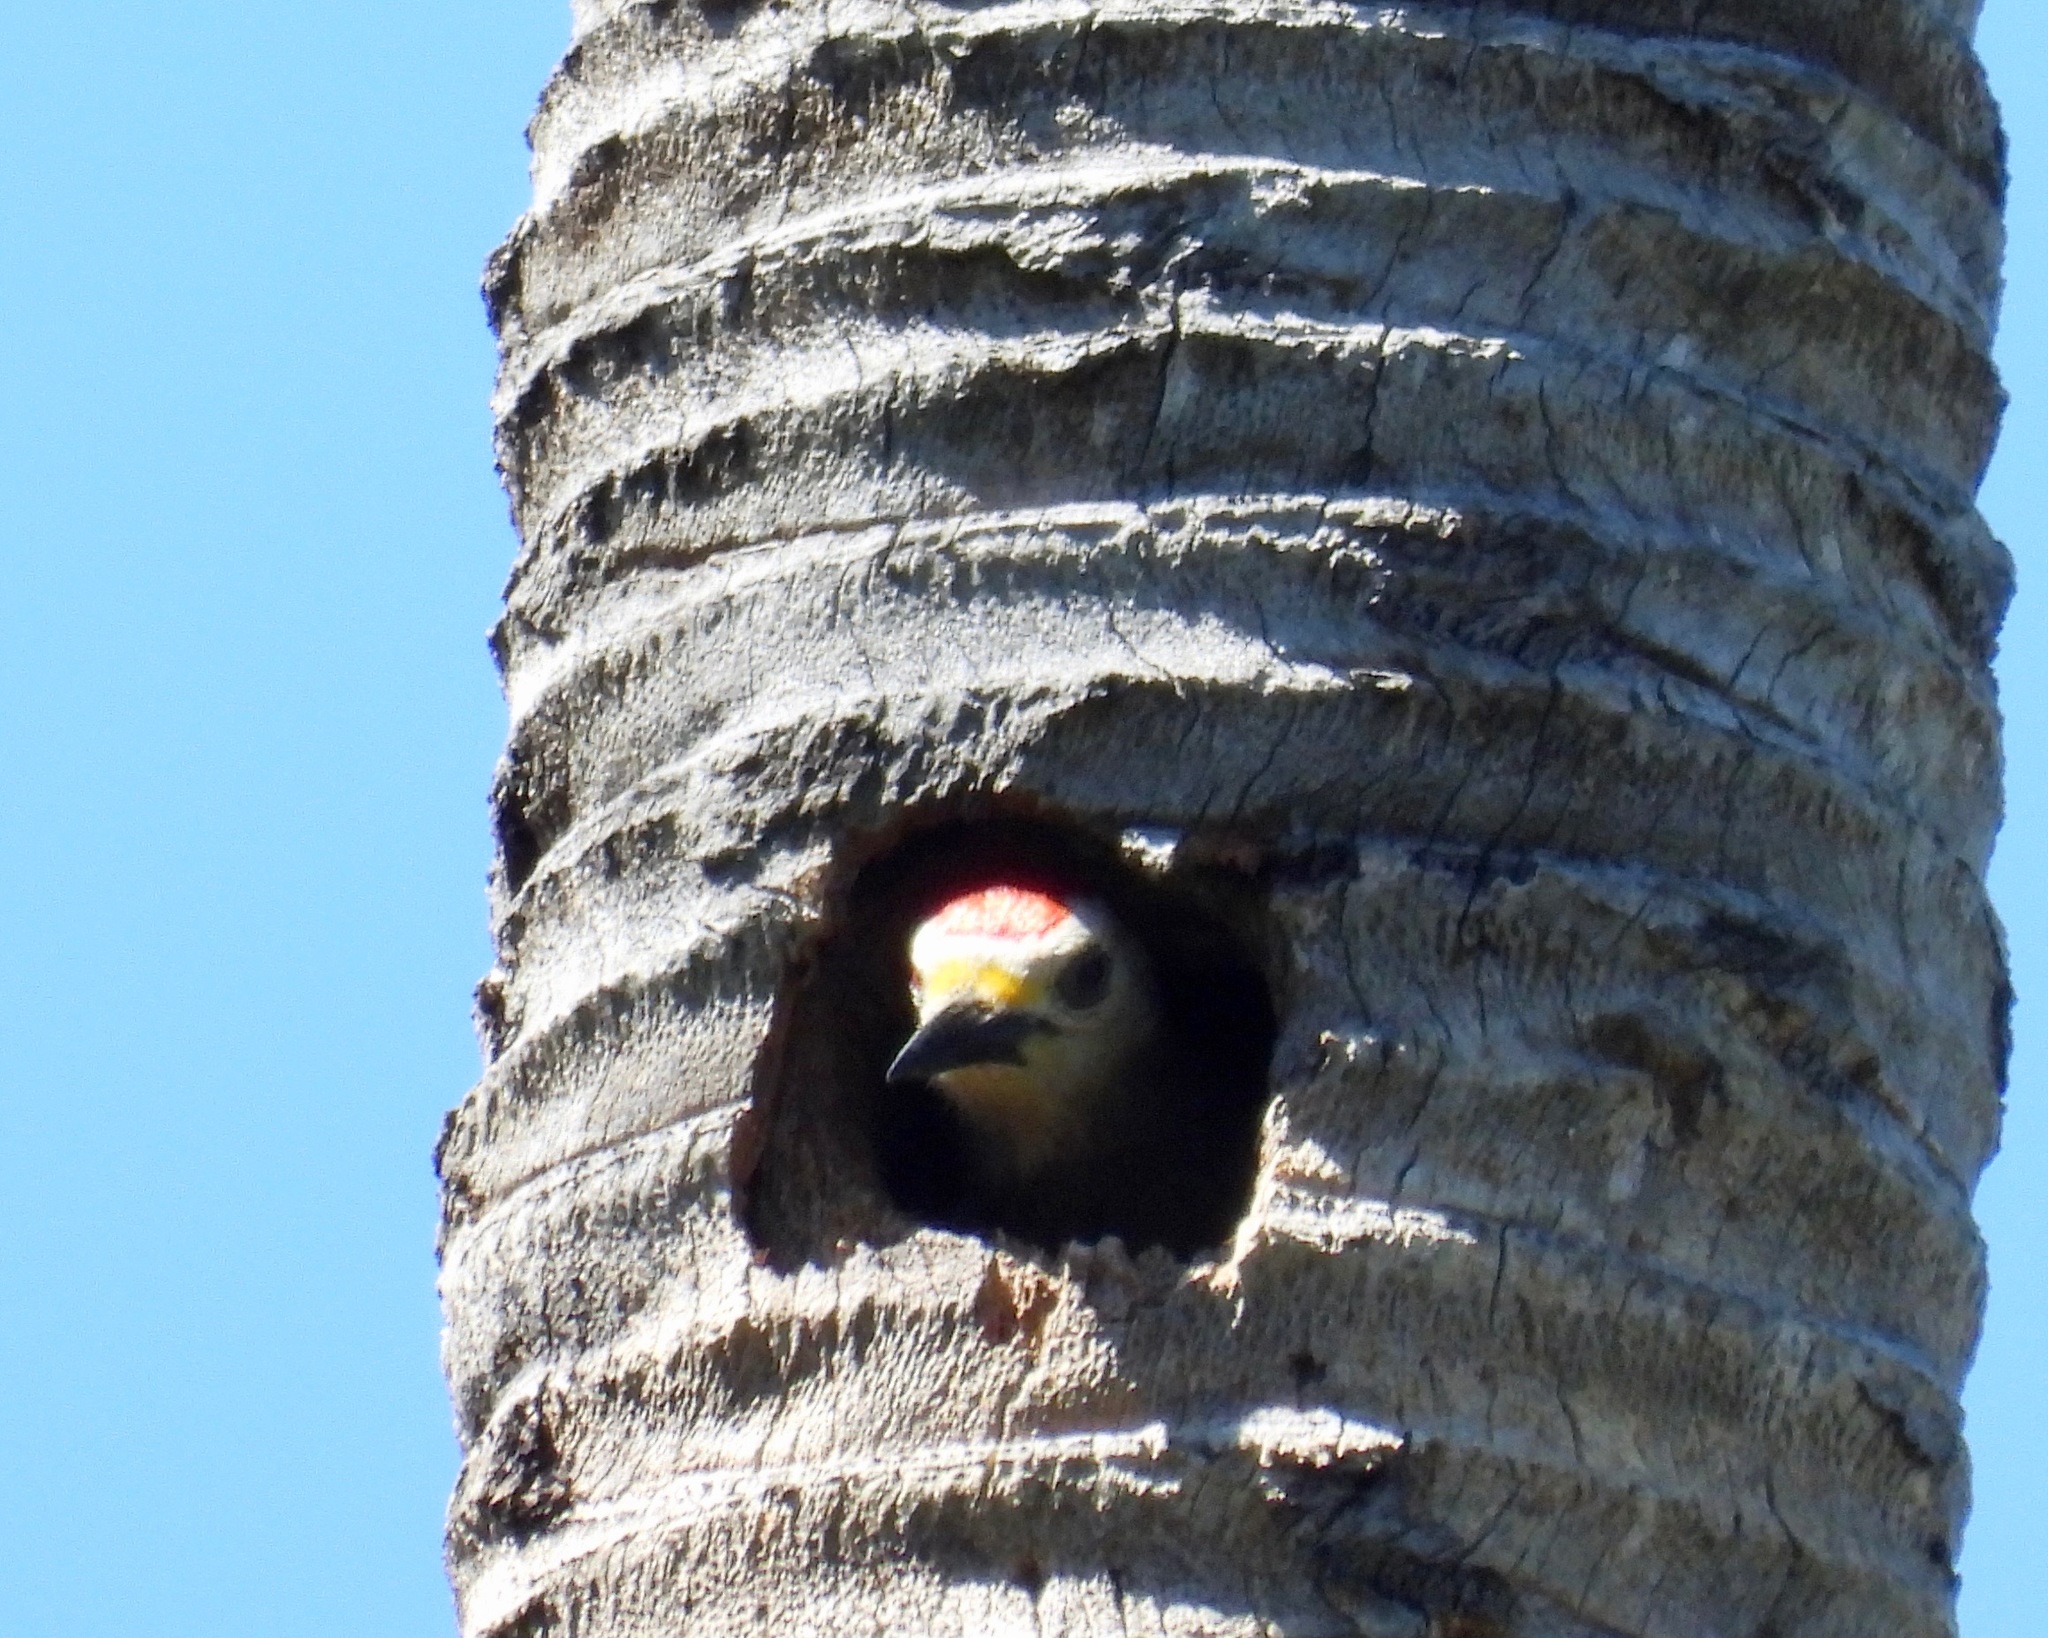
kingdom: Animalia
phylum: Chordata
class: Aves
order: Piciformes
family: Picidae
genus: Melanerpes
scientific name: Melanerpes aurifrons
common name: Golden-fronted woodpecker
